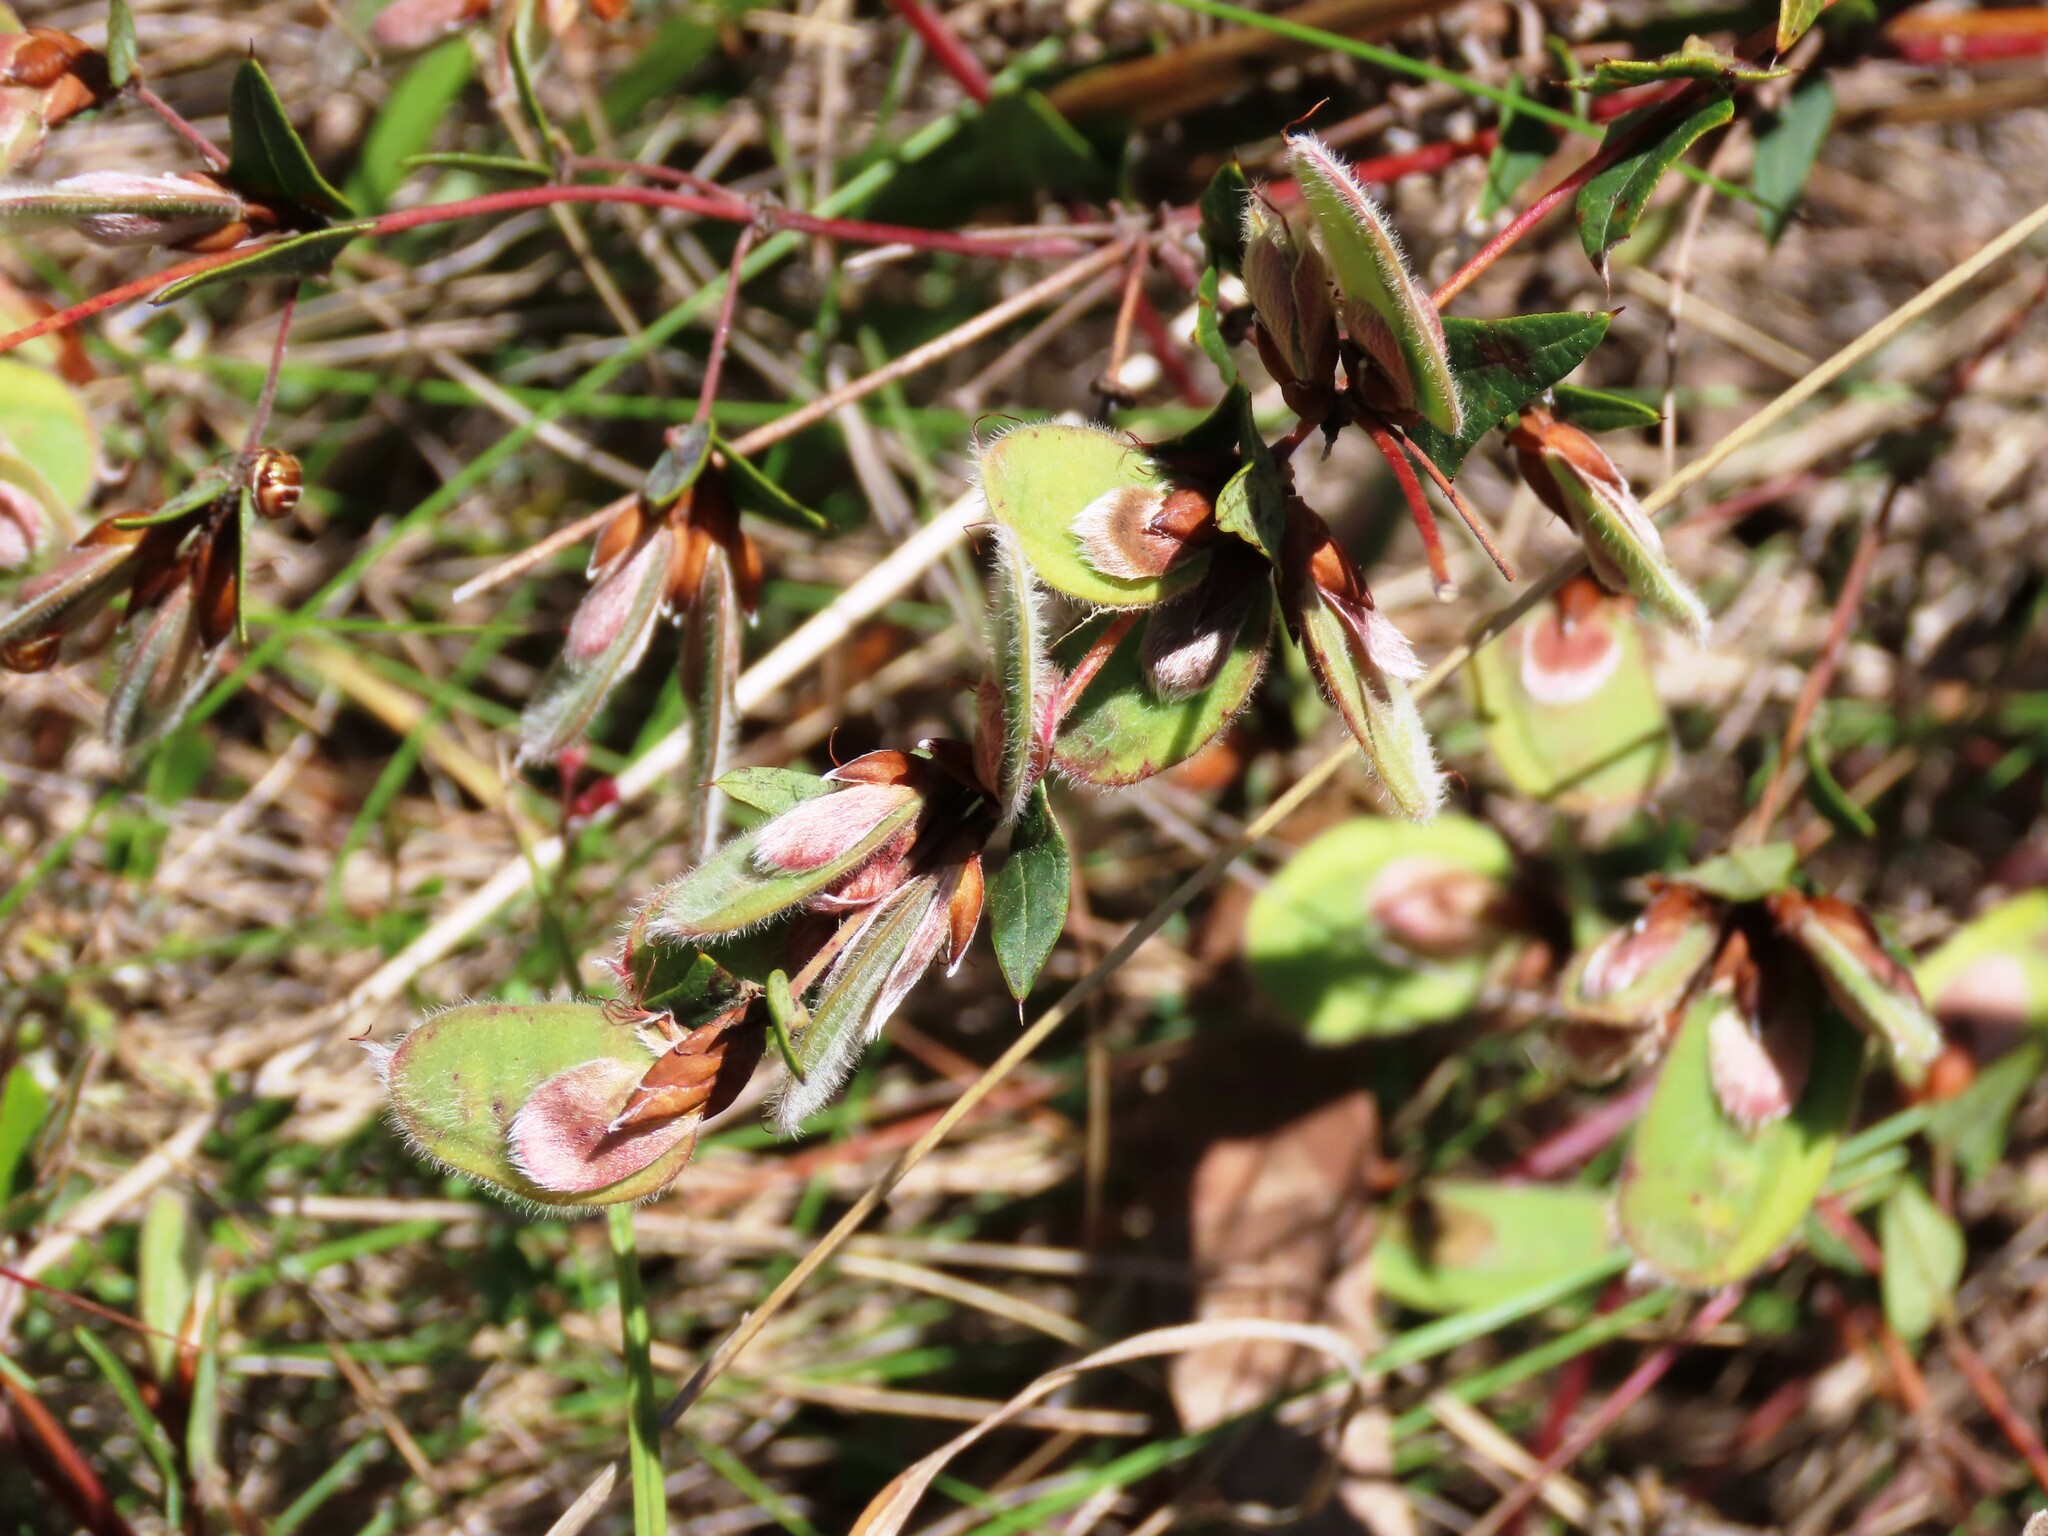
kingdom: Plantae
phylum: Tracheophyta
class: Magnoliopsida
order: Fabales
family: Fabaceae
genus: Platylobium
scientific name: Platylobium obtusangulum
